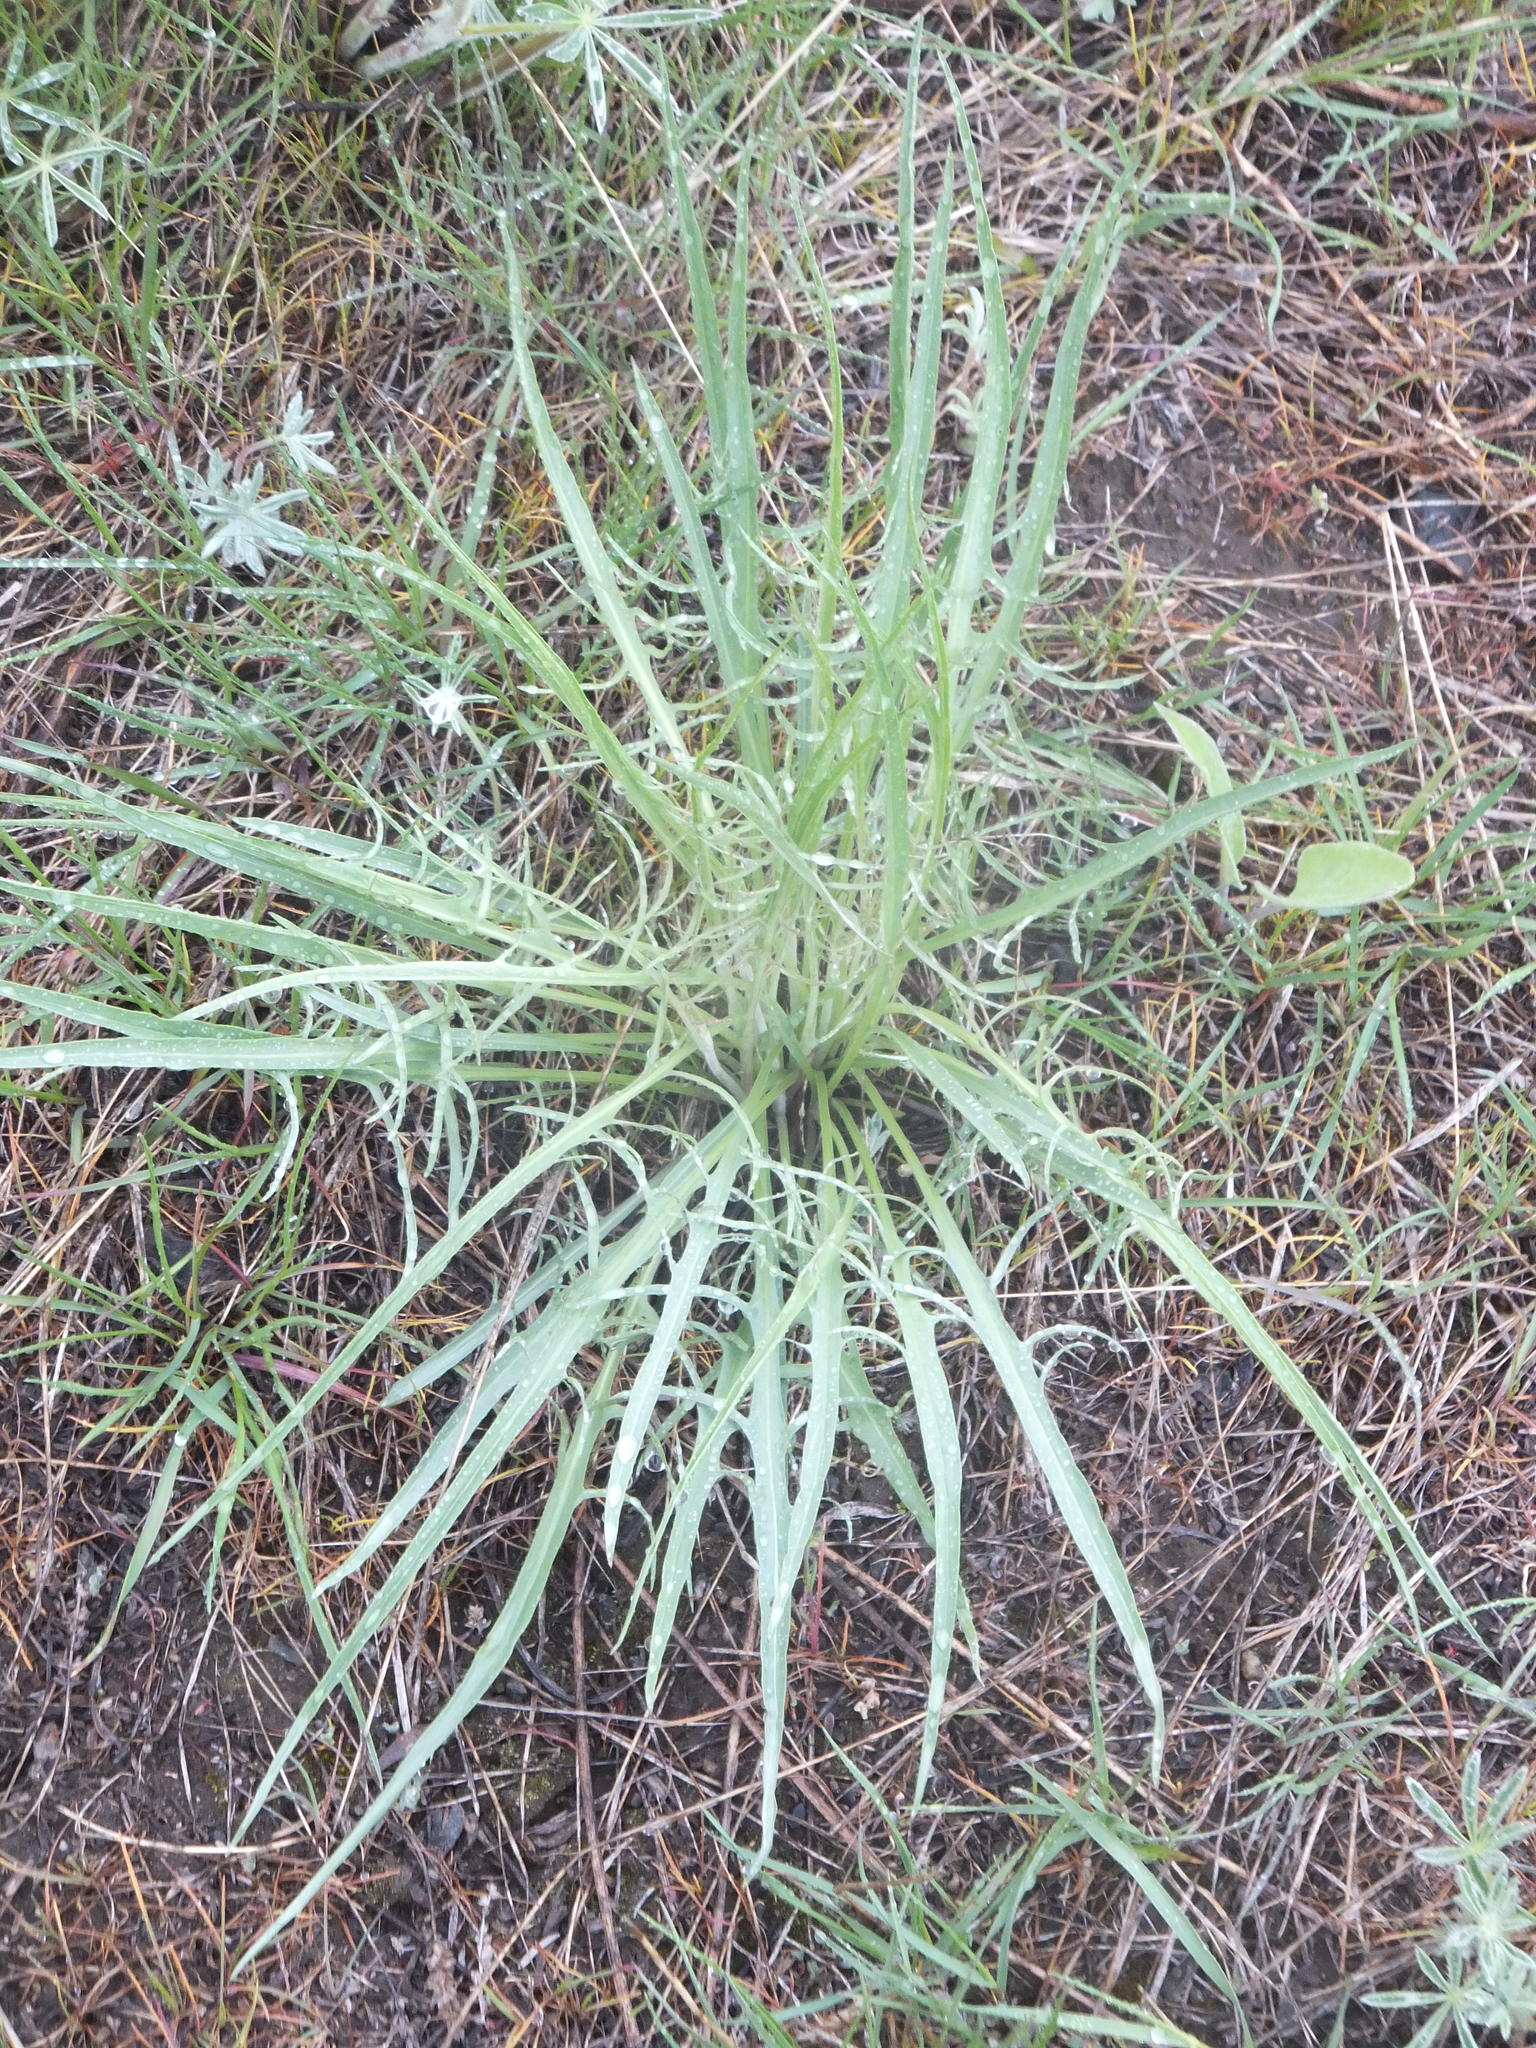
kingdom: Plantae
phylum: Tracheophyta
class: Magnoliopsida
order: Asterales
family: Asteraceae
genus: Crepis
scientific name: Crepis atribarba
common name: Dark hawk's-beard
